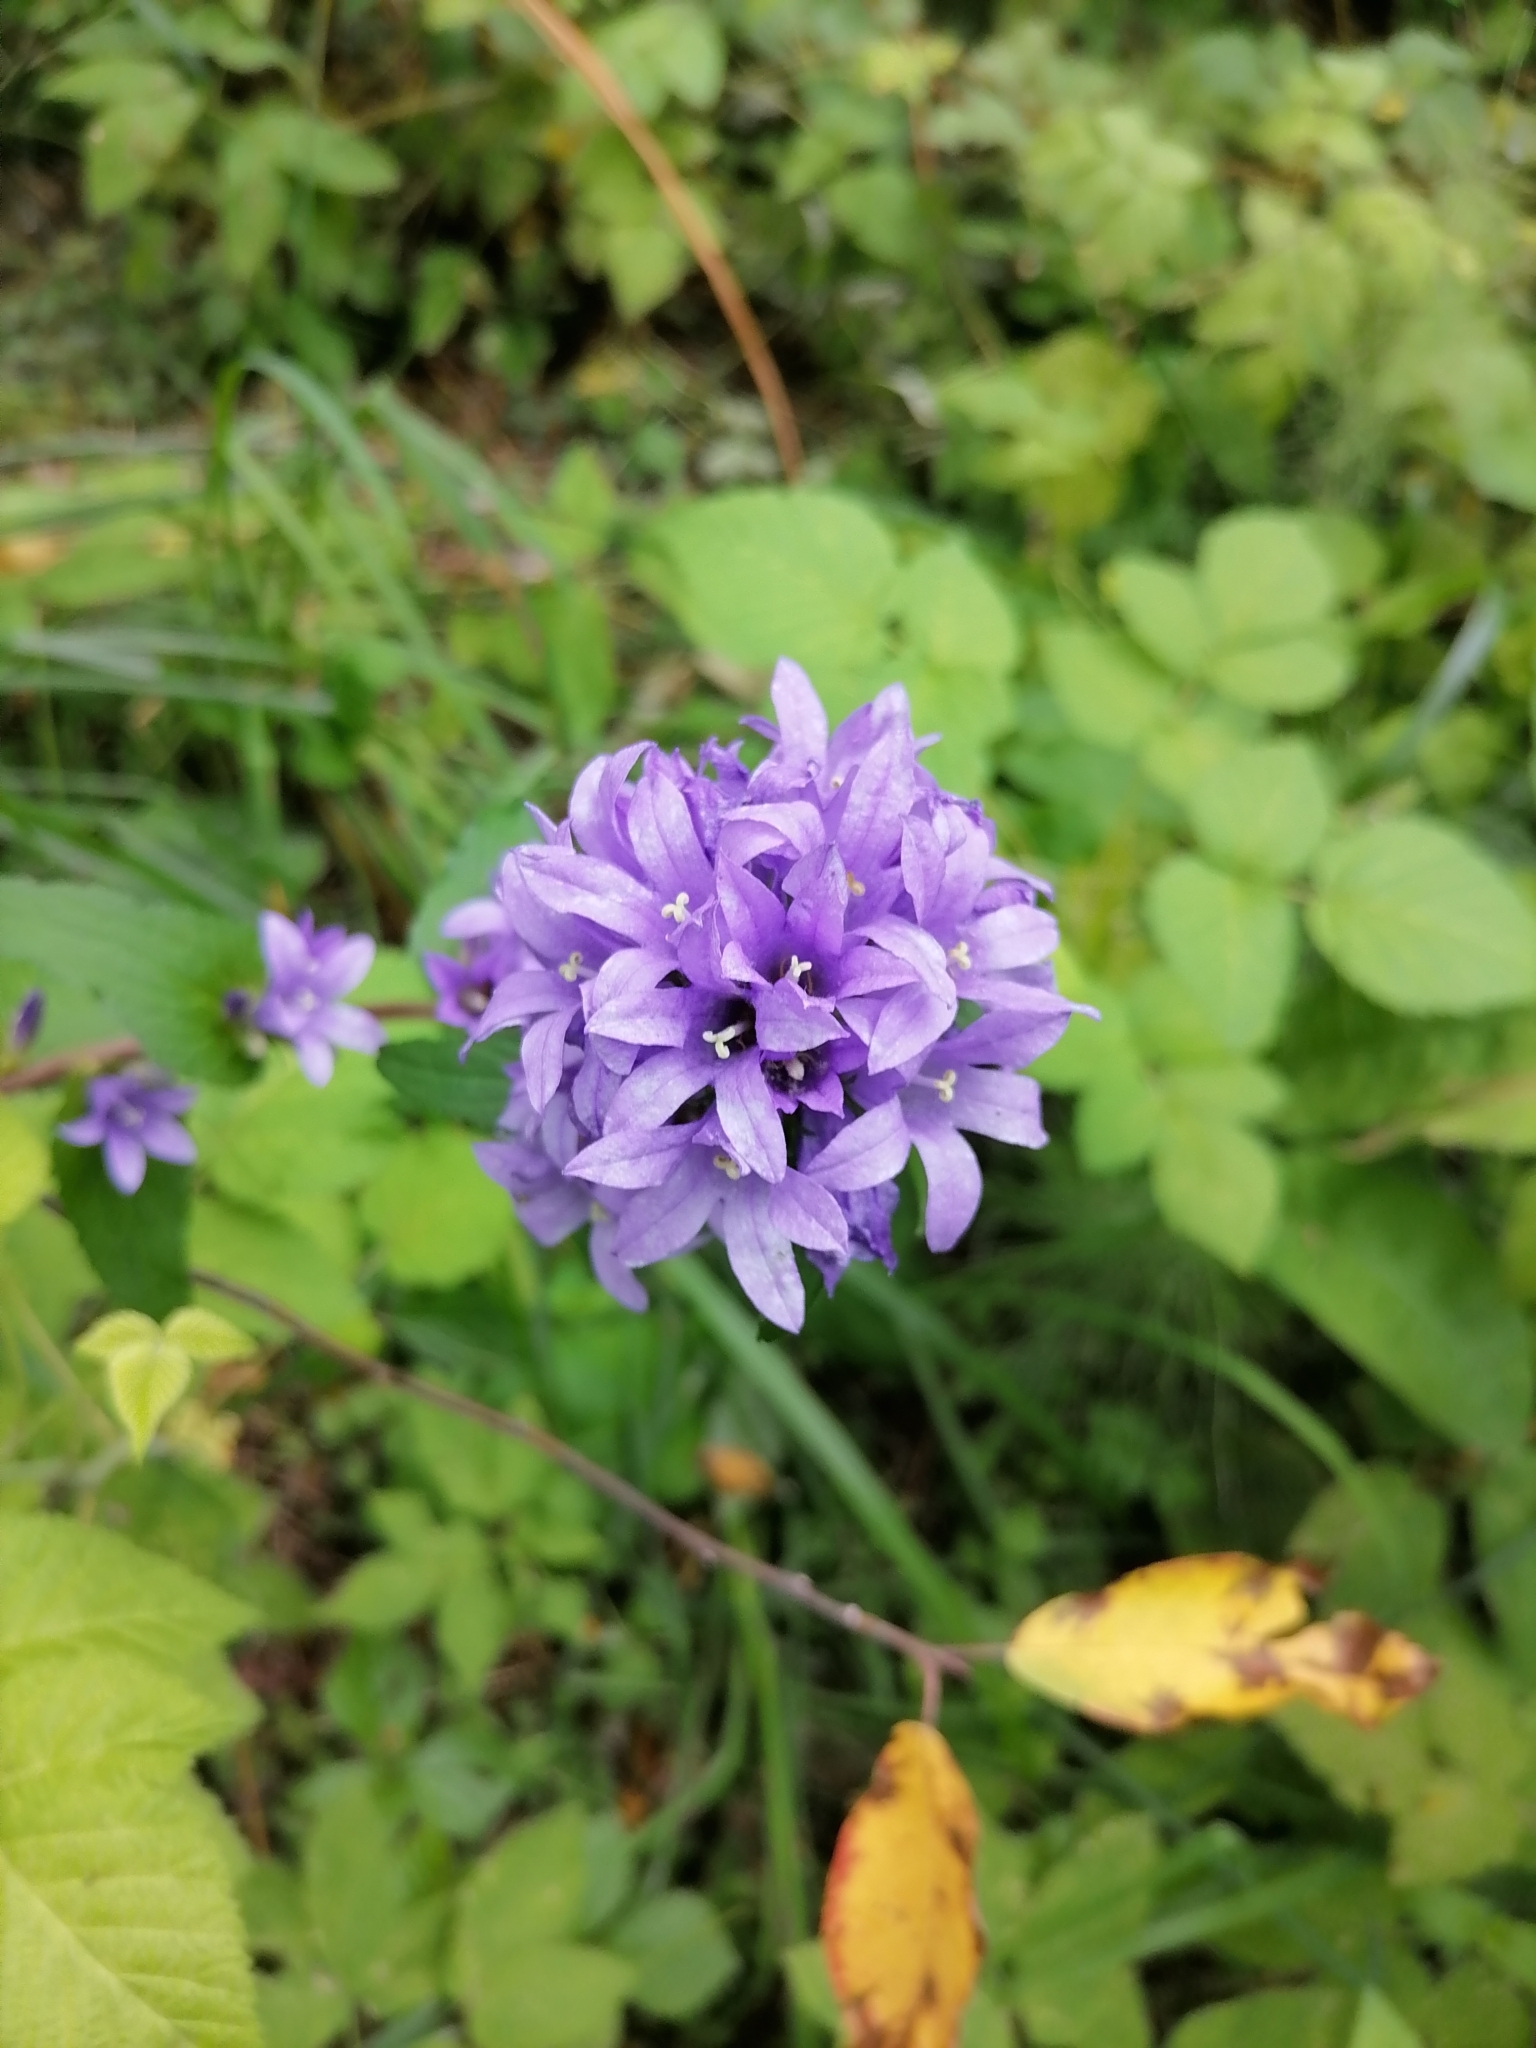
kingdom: Plantae
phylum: Tracheophyta
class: Magnoliopsida
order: Asterales
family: Campanulaceae
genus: Campanula
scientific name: Campanula glomerata
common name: Clustered bellflower
